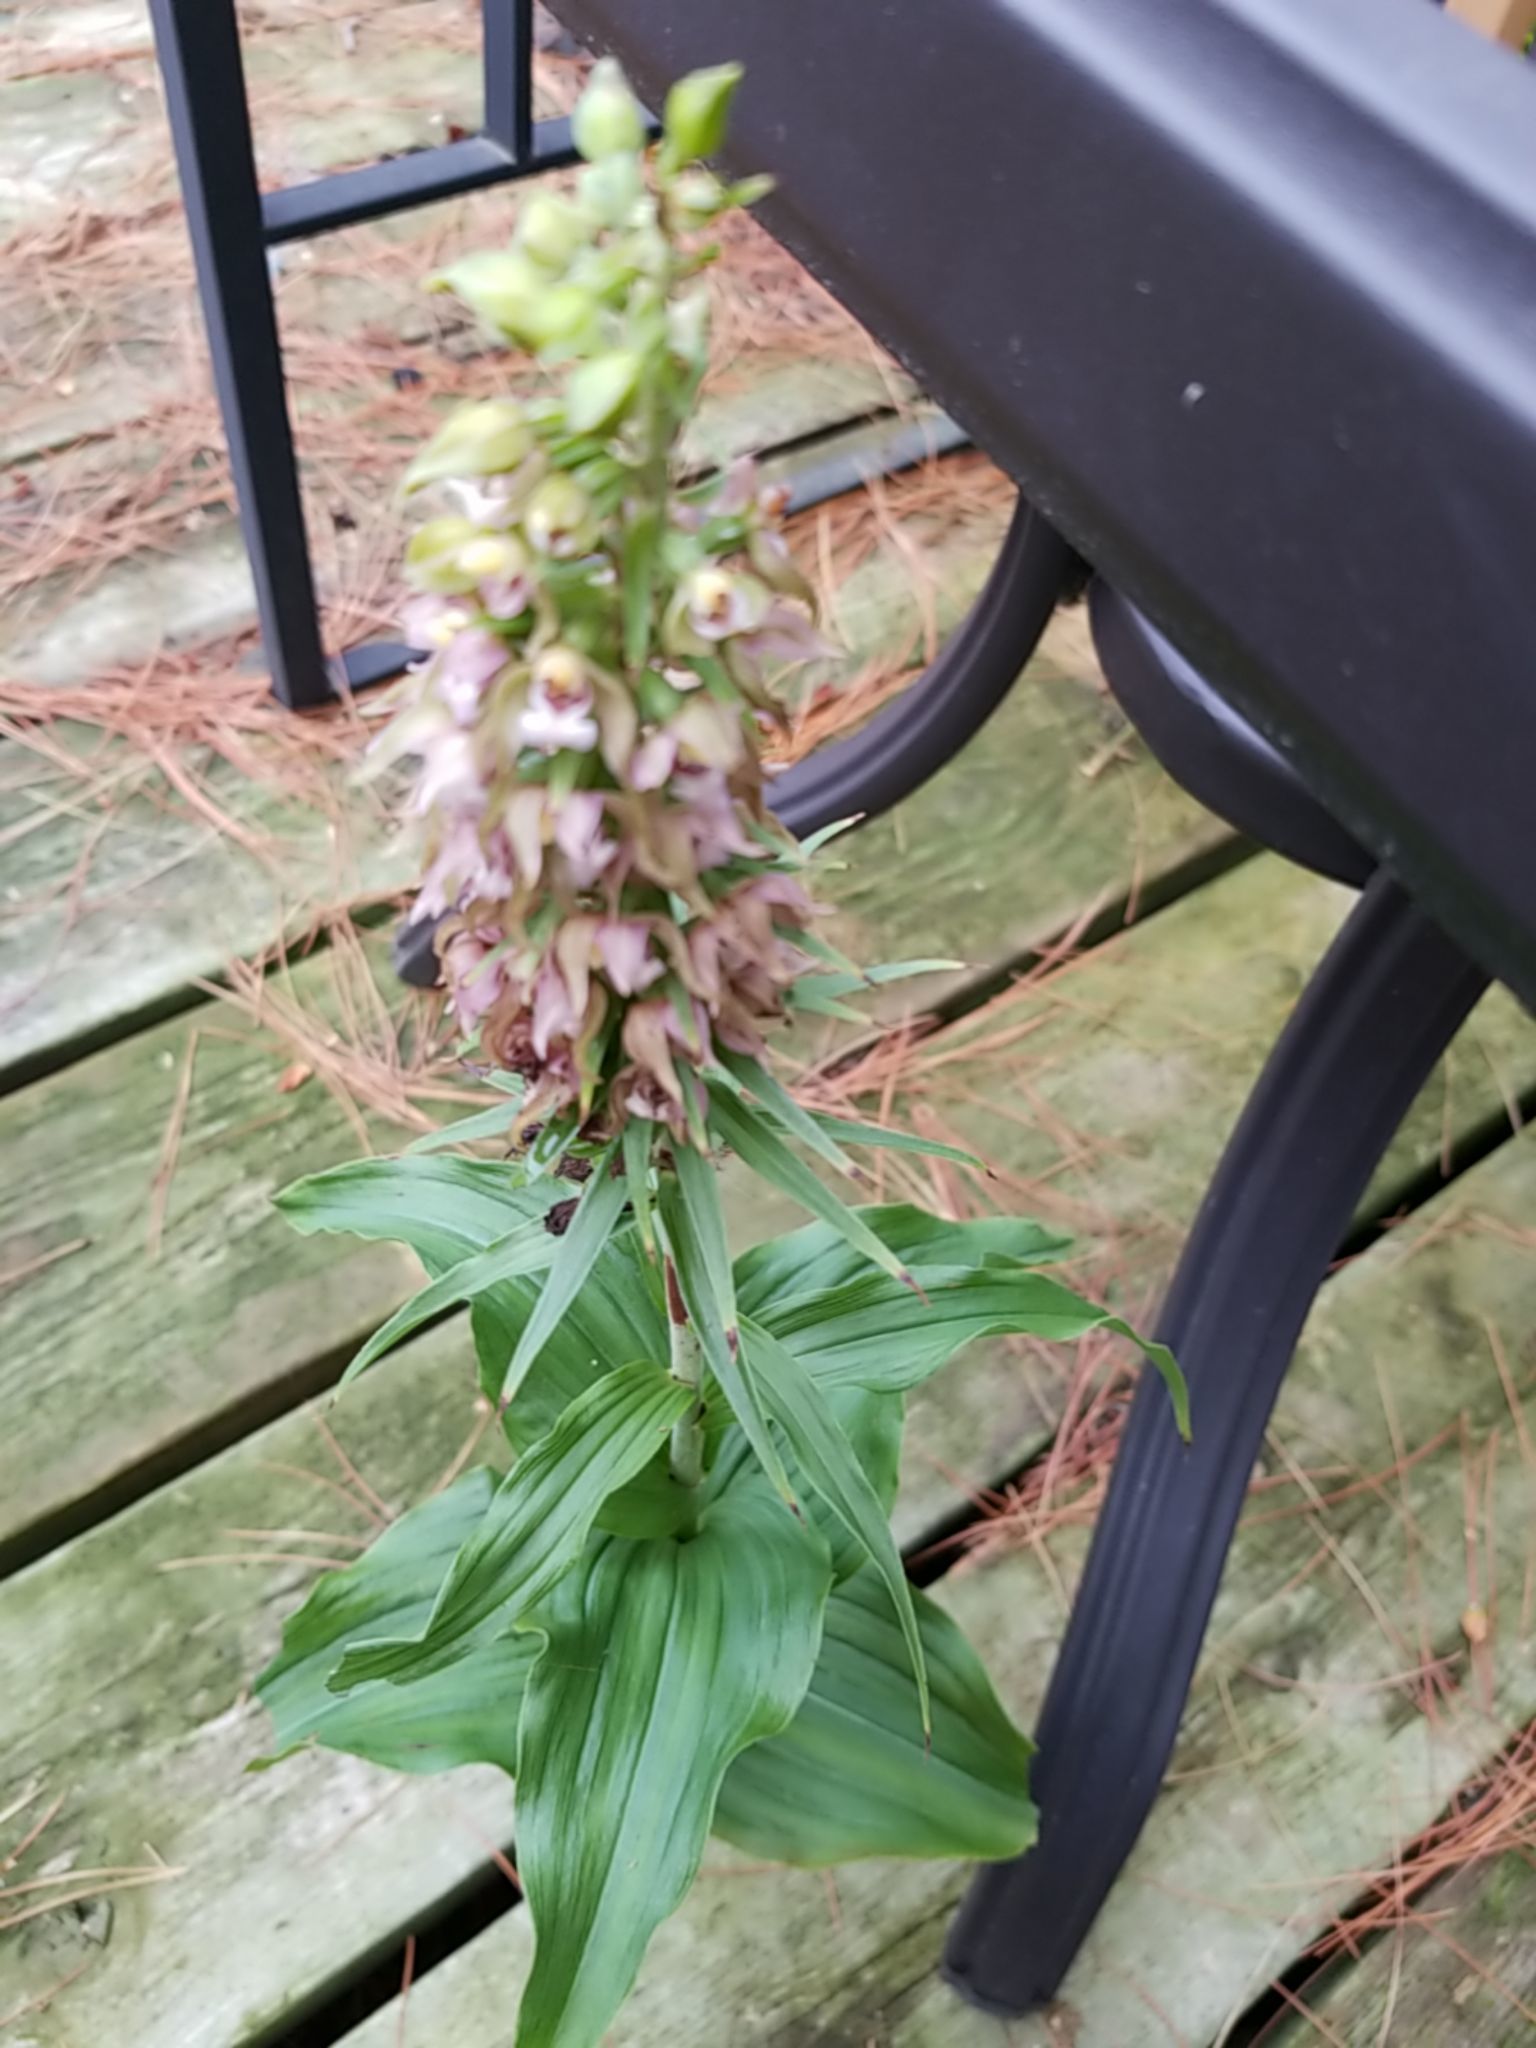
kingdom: Plantae
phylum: Tracheophyta
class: Liliopsida
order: Asparagales
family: Orchidaceae
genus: Epipactis
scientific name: Epipactis helleborine
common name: Broad-leaved helleborine
